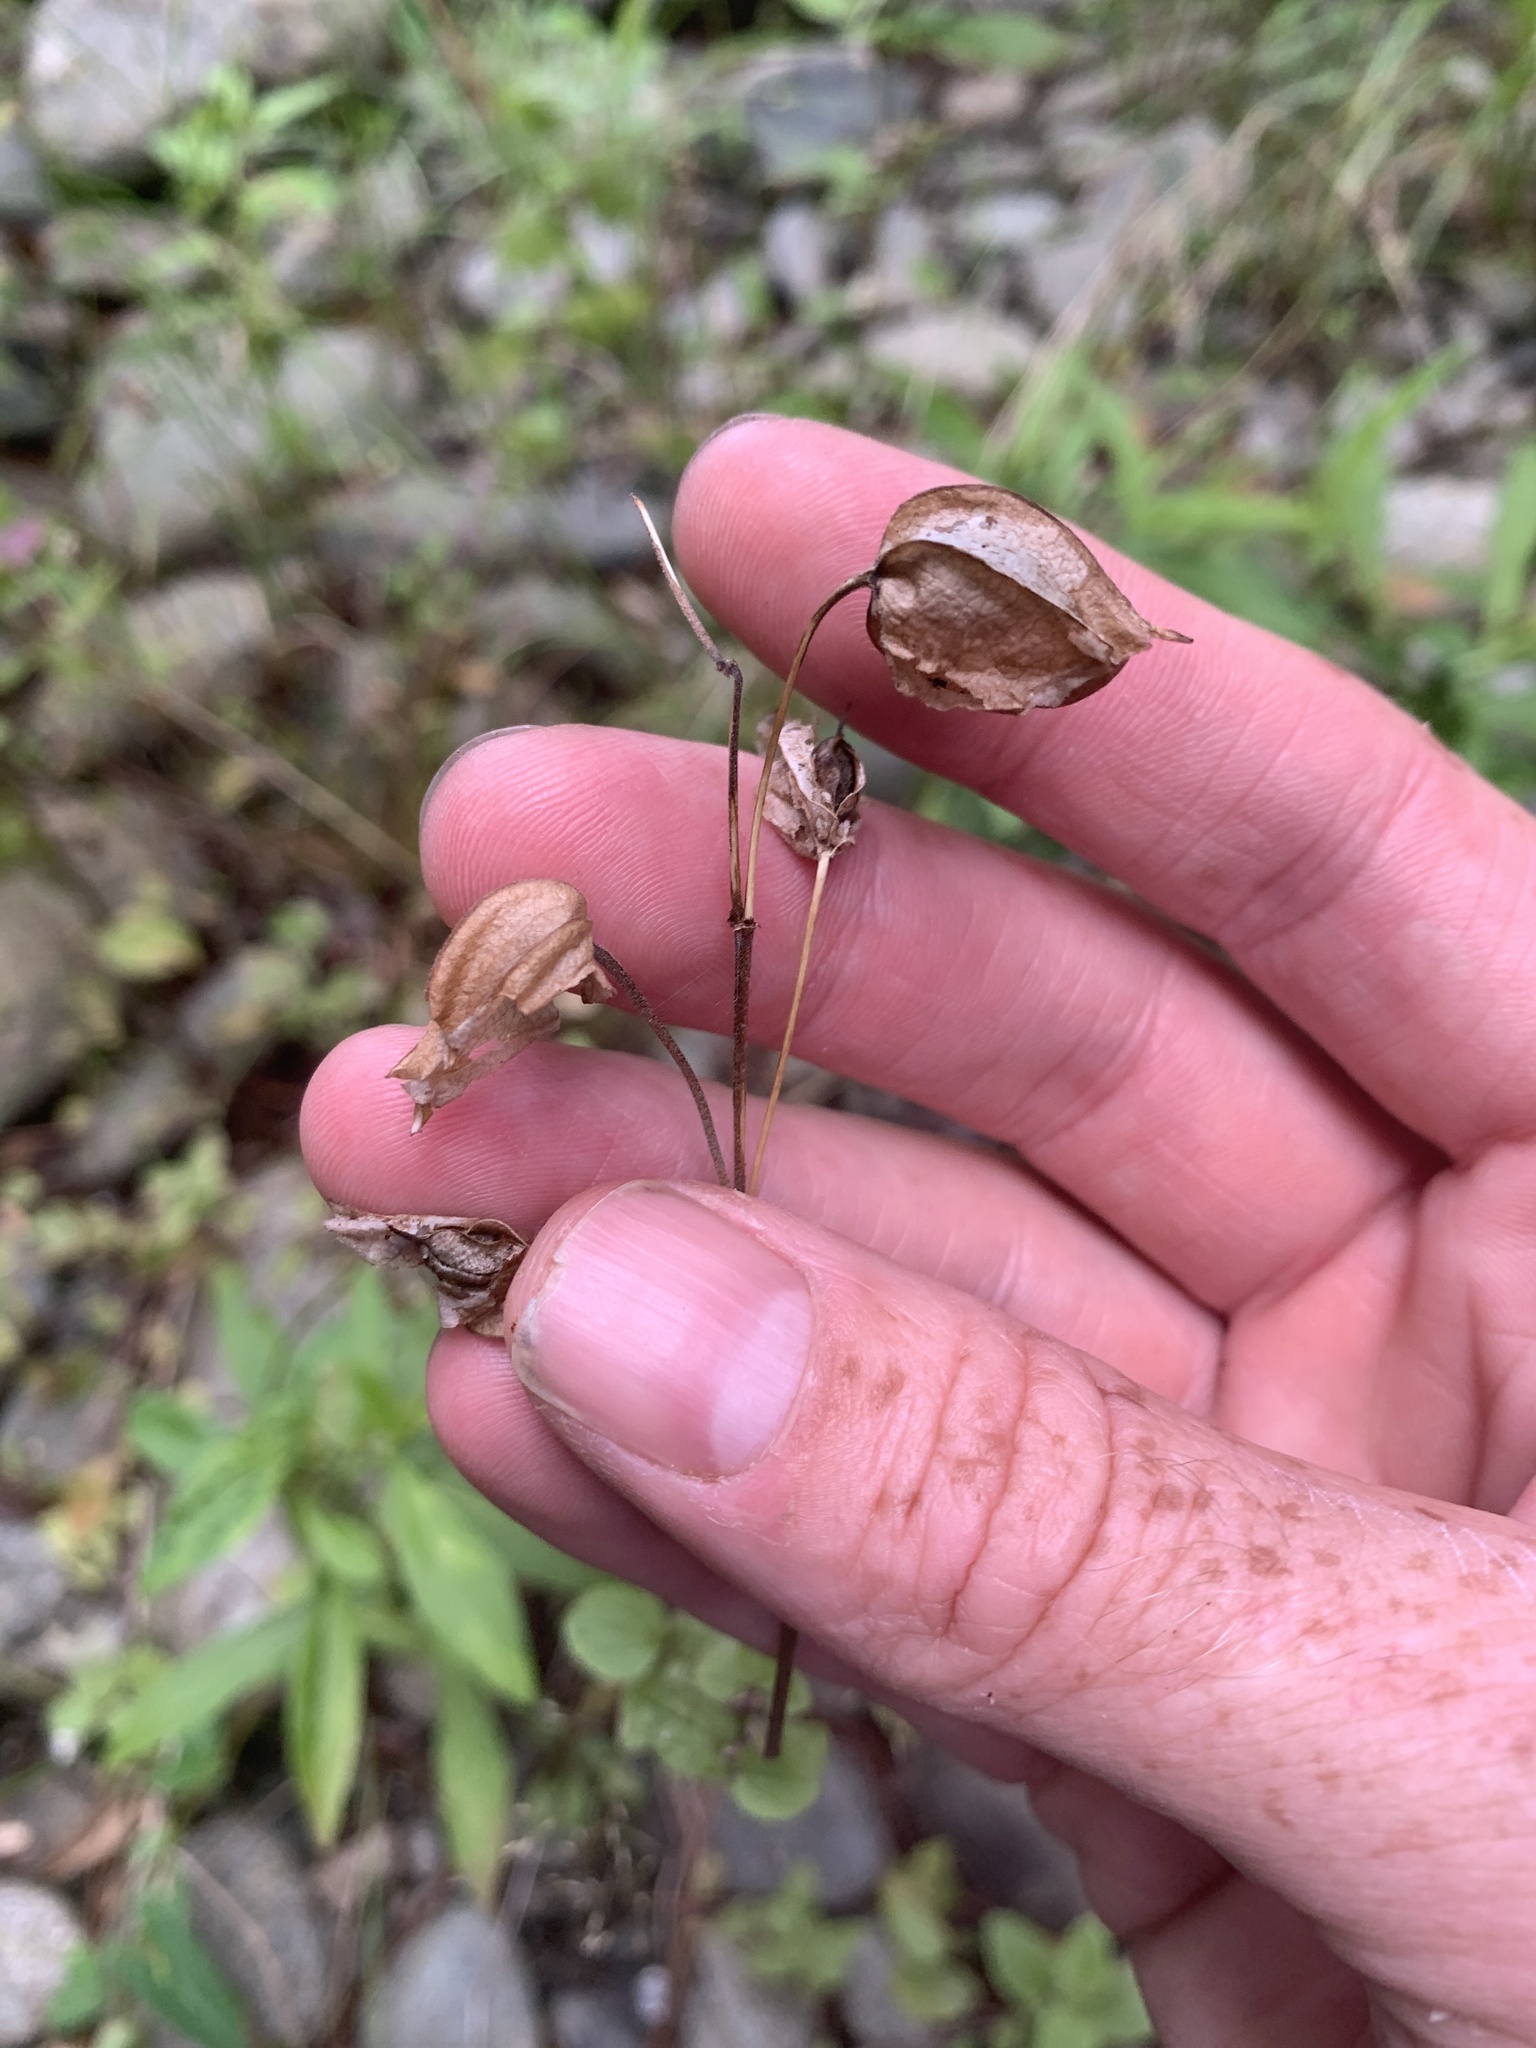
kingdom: Plantae
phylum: Tracheophyta
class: Magnoliopsida
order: Lamiales
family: Phrymaceae
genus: Erythranthe
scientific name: Erythranthe guttata
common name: Monkeyflower
